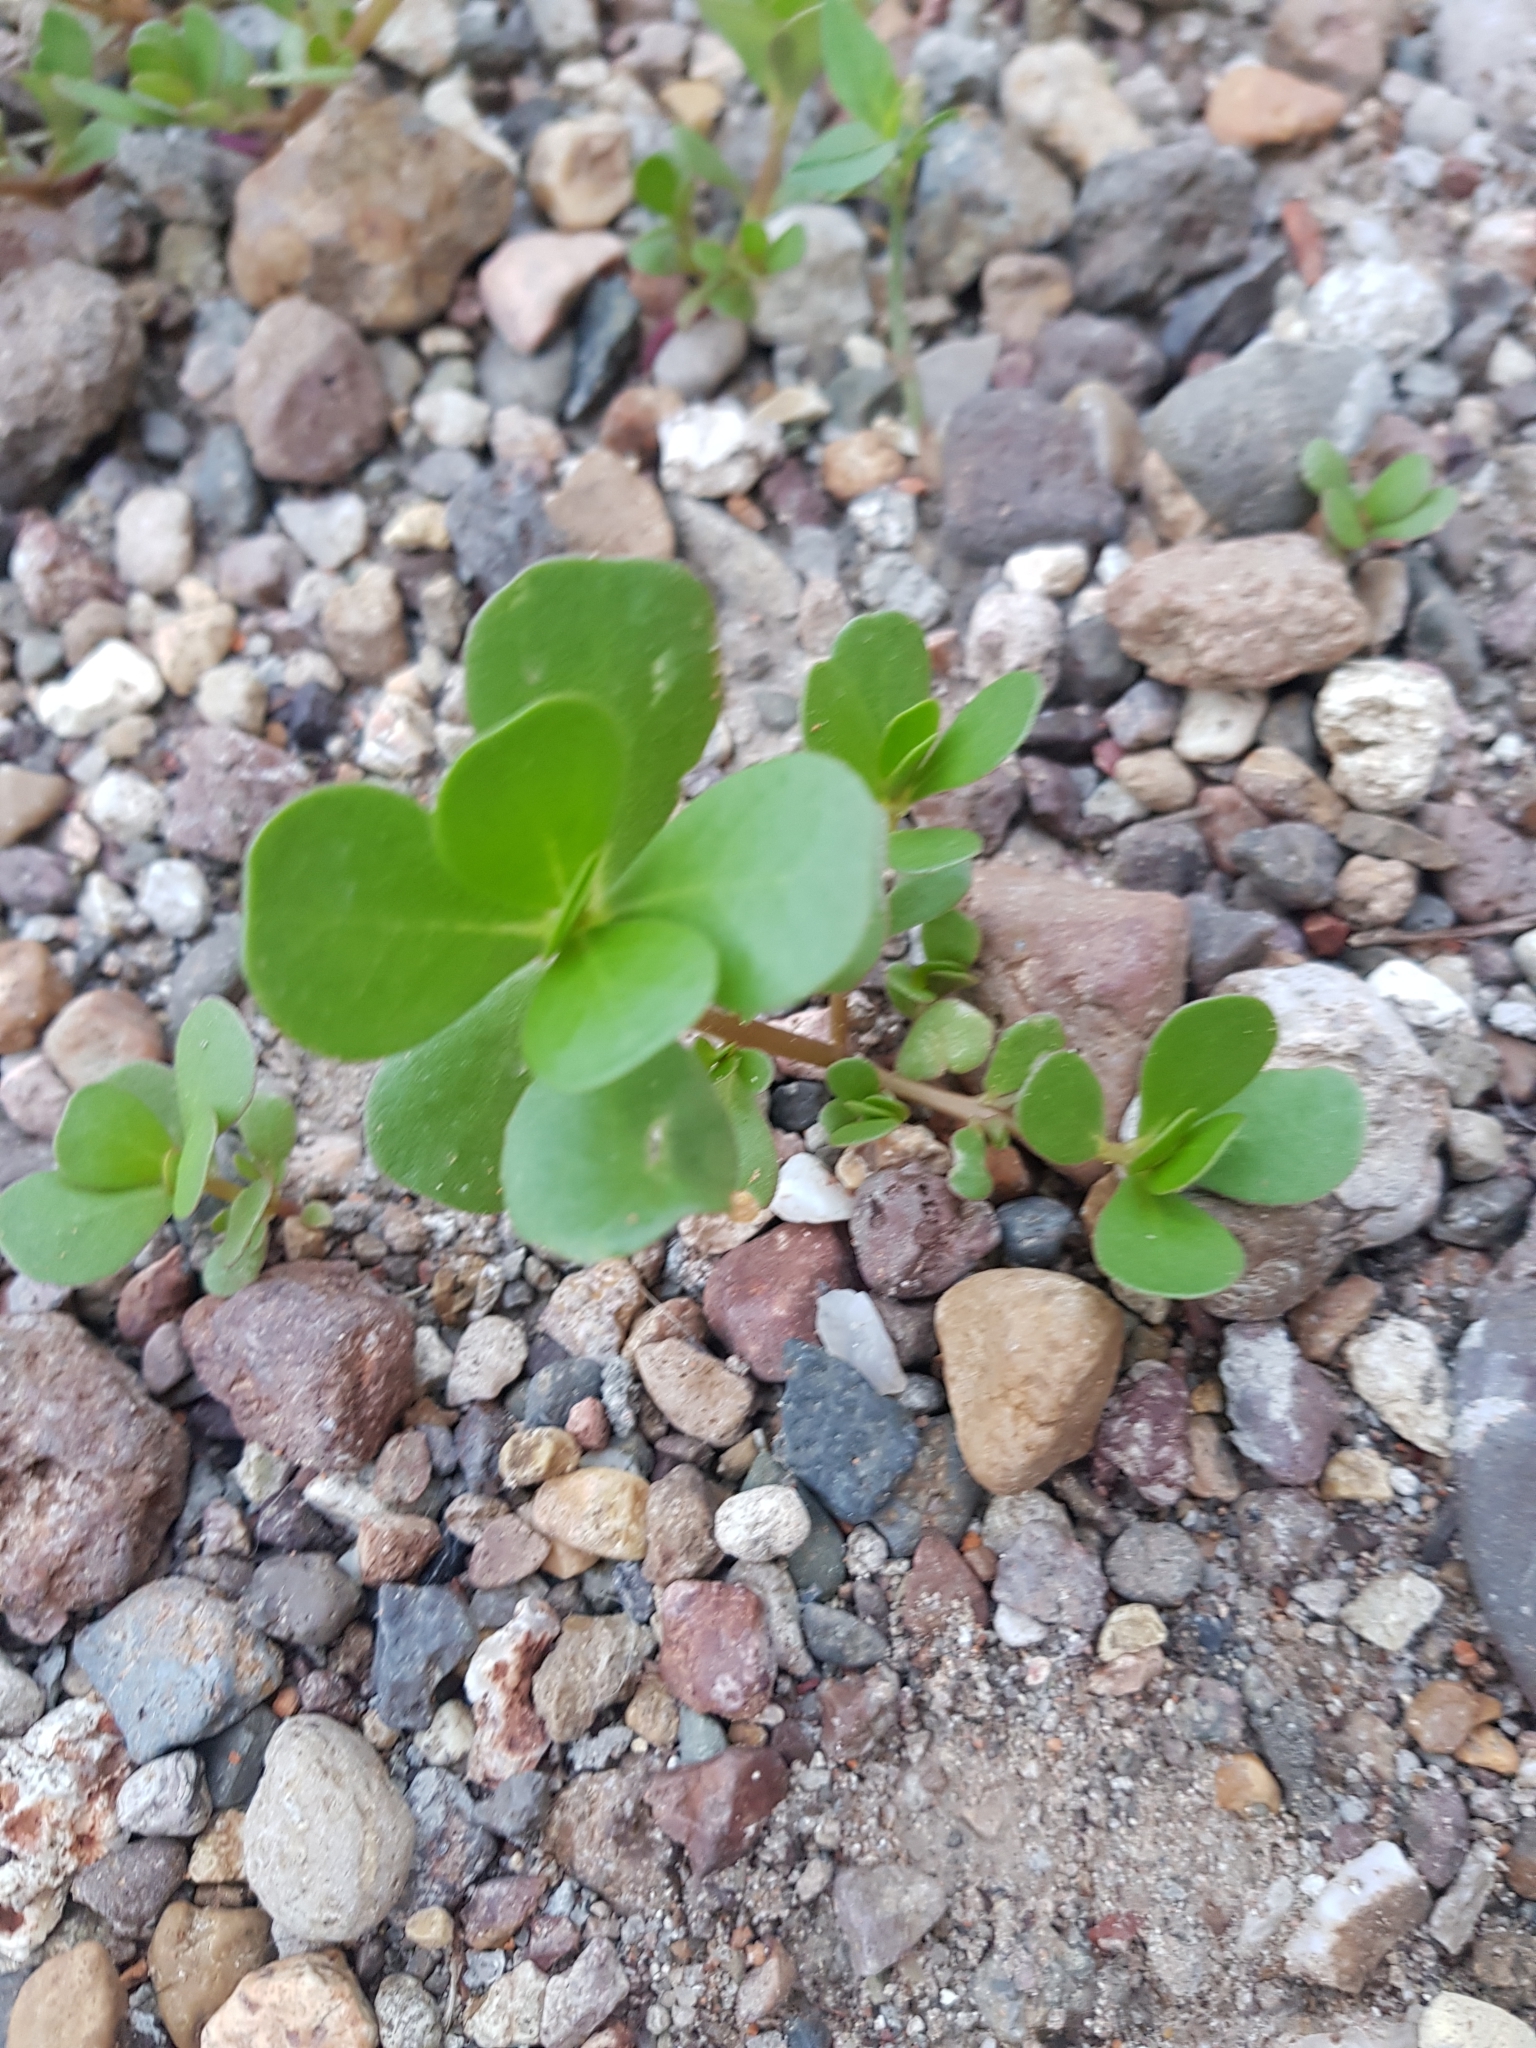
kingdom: Plantae
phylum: Tracheophyta
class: Magnoliopsida
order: Caryophyllales
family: Portulacaceae
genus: Portulaca
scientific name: Portulaca oleracea
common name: Common purslane
